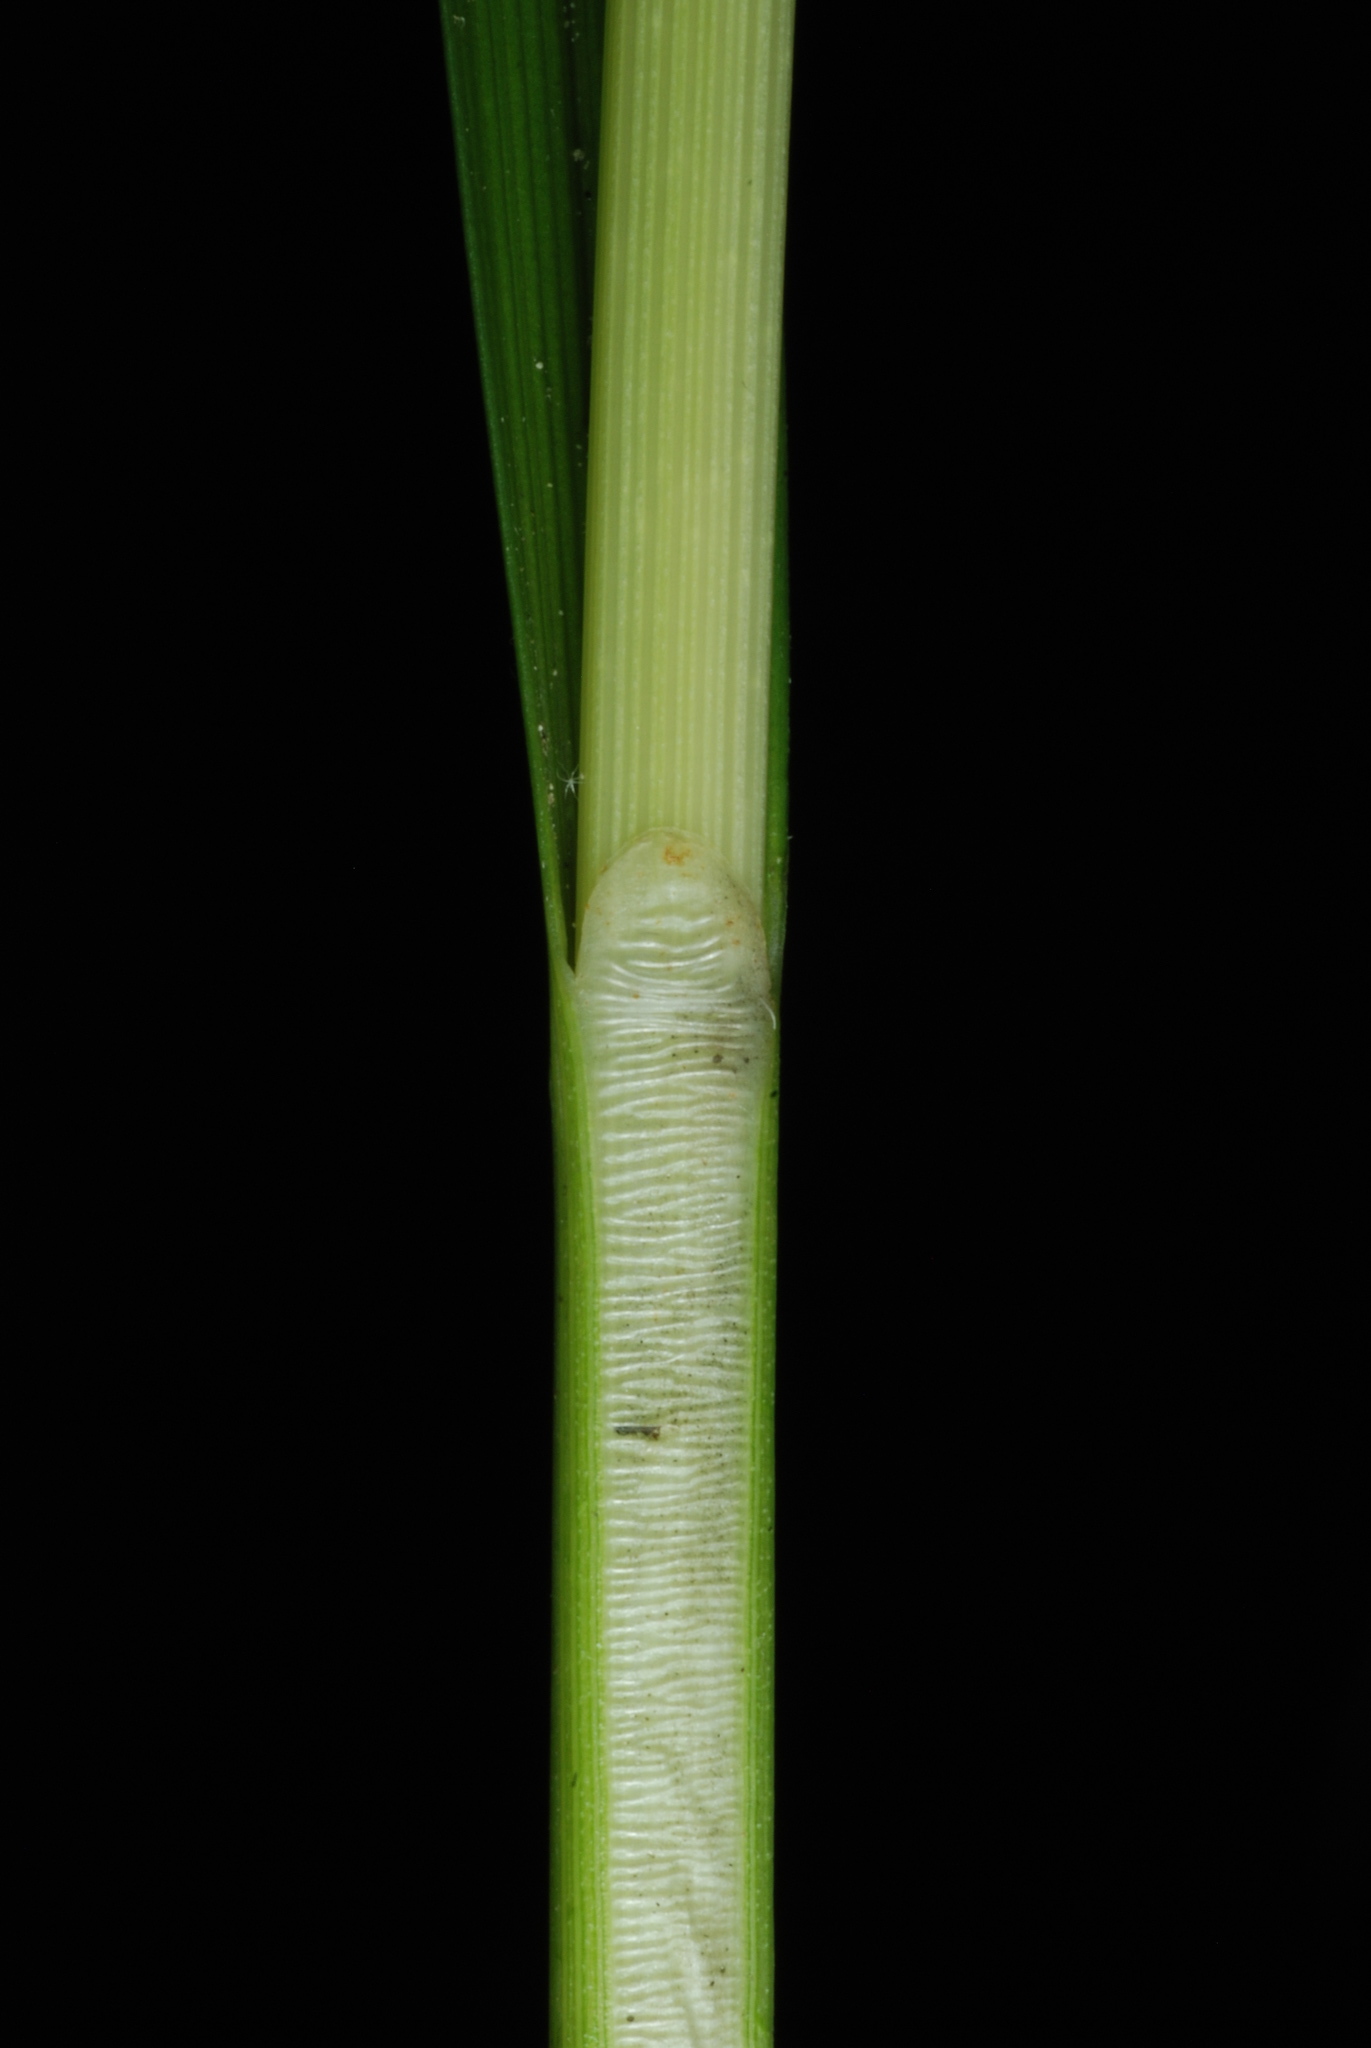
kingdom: Plantae
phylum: Tracheophyta
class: Liliopsida
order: Poales
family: Cyperaceae
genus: Carex
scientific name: Carex annectens
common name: Large fox sedge
